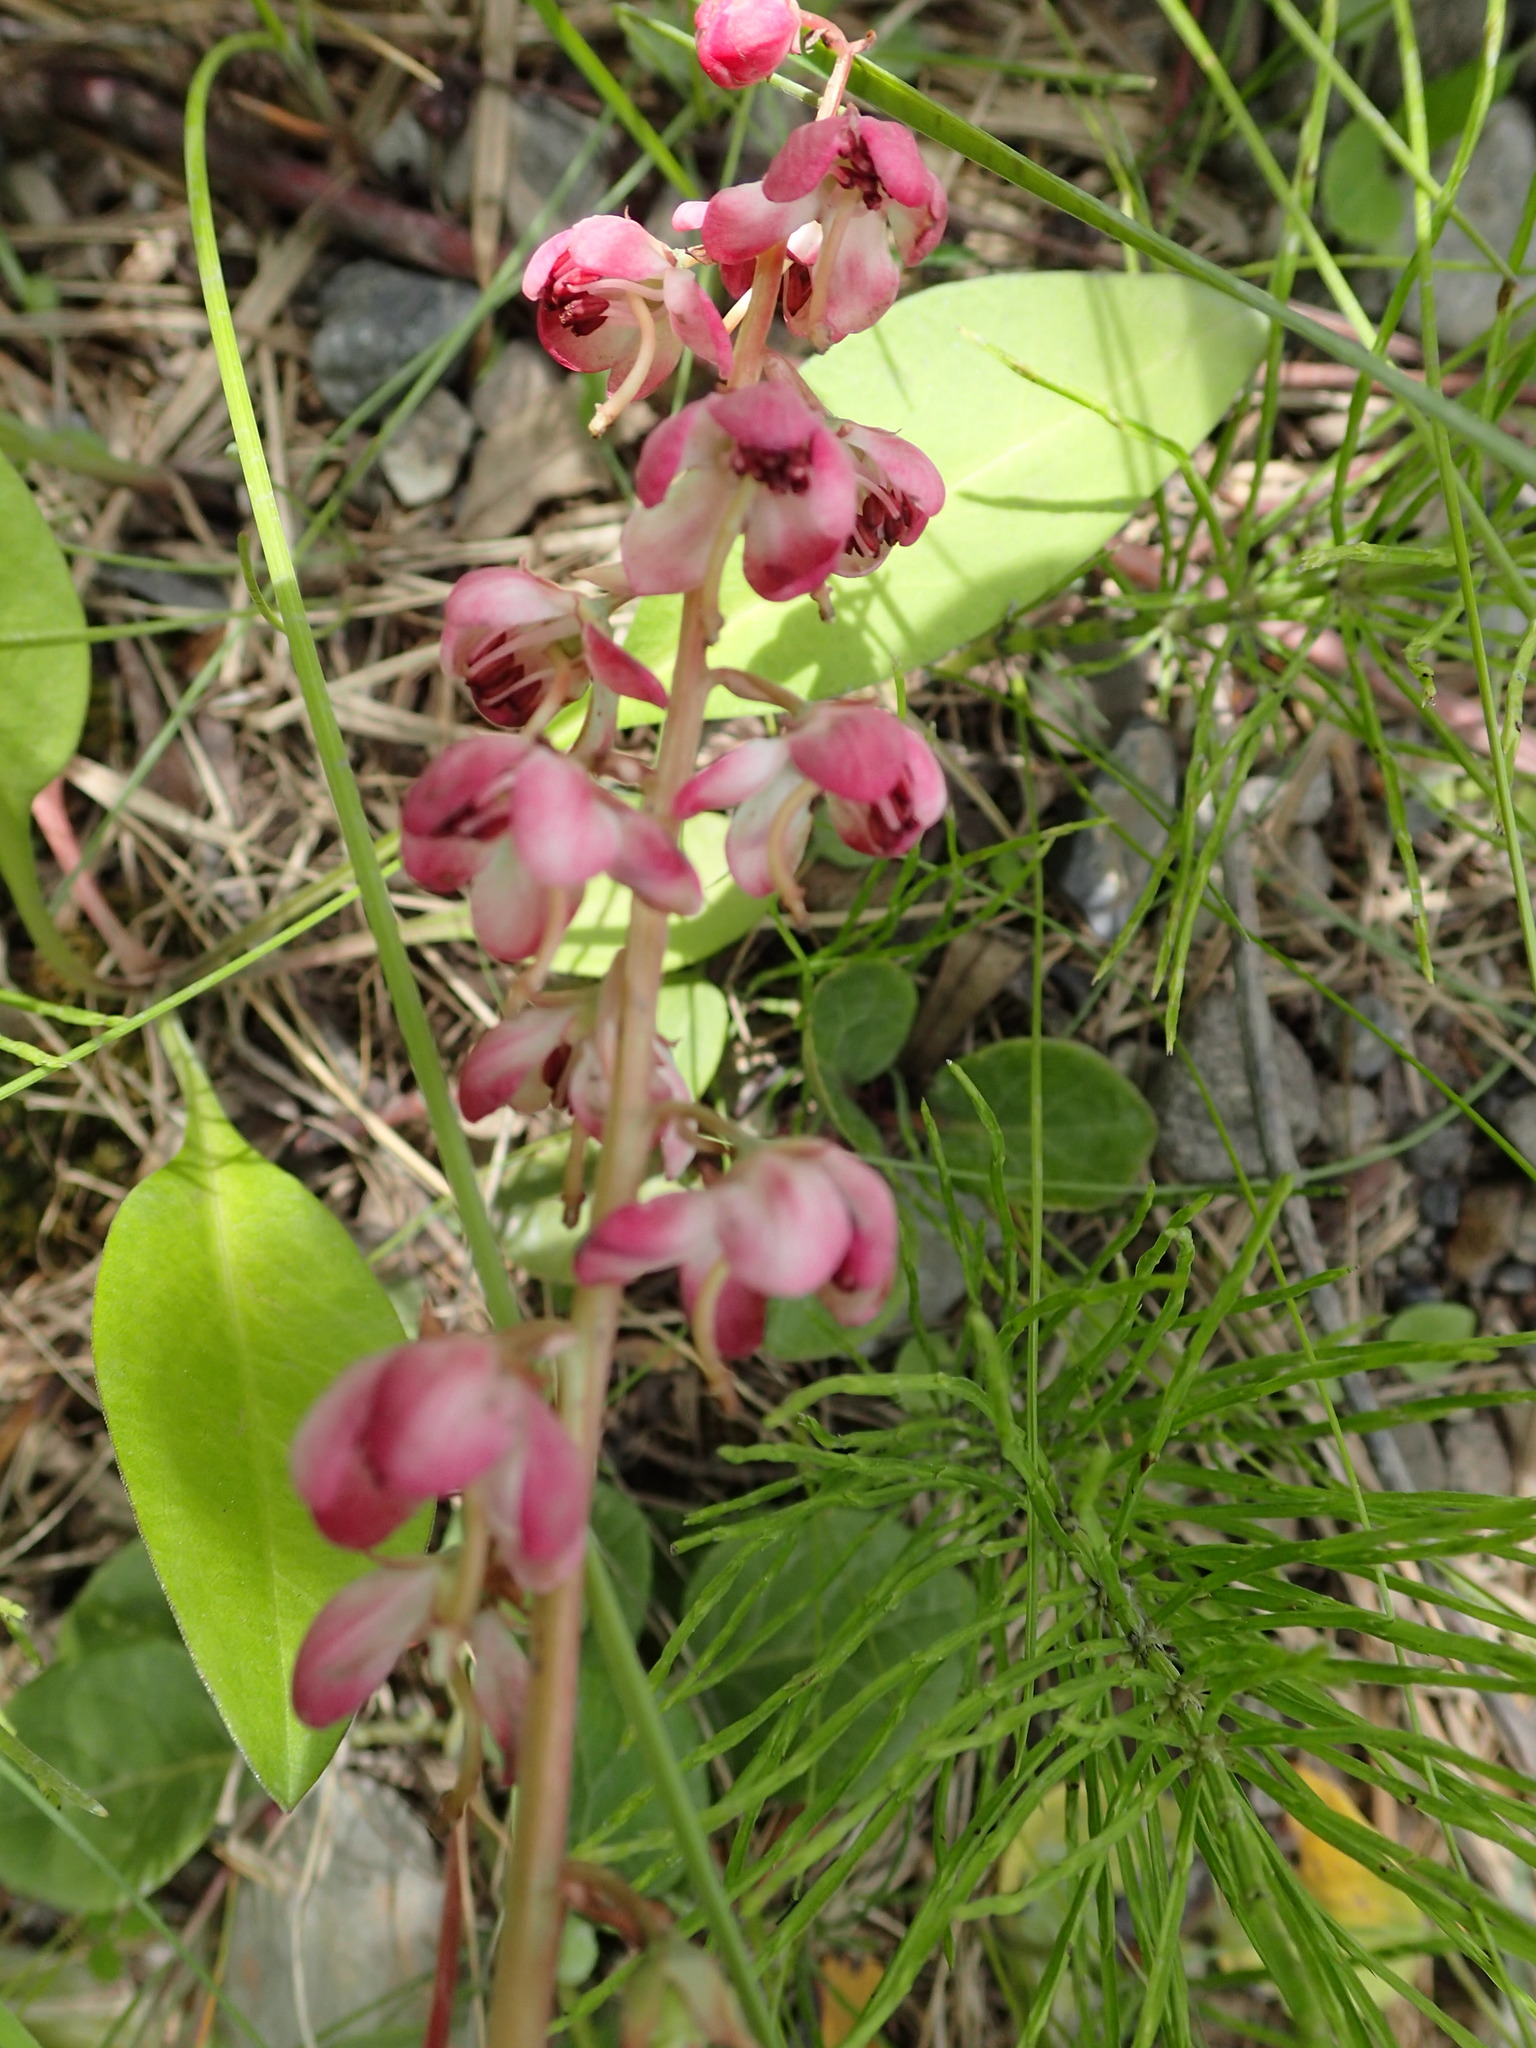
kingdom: Plantae
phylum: Tracheophyta
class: Magnoliopsida
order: Ericales
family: Ericaceae
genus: Pyrola
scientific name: Pyrola asarifolia
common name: Bog wintergreen
